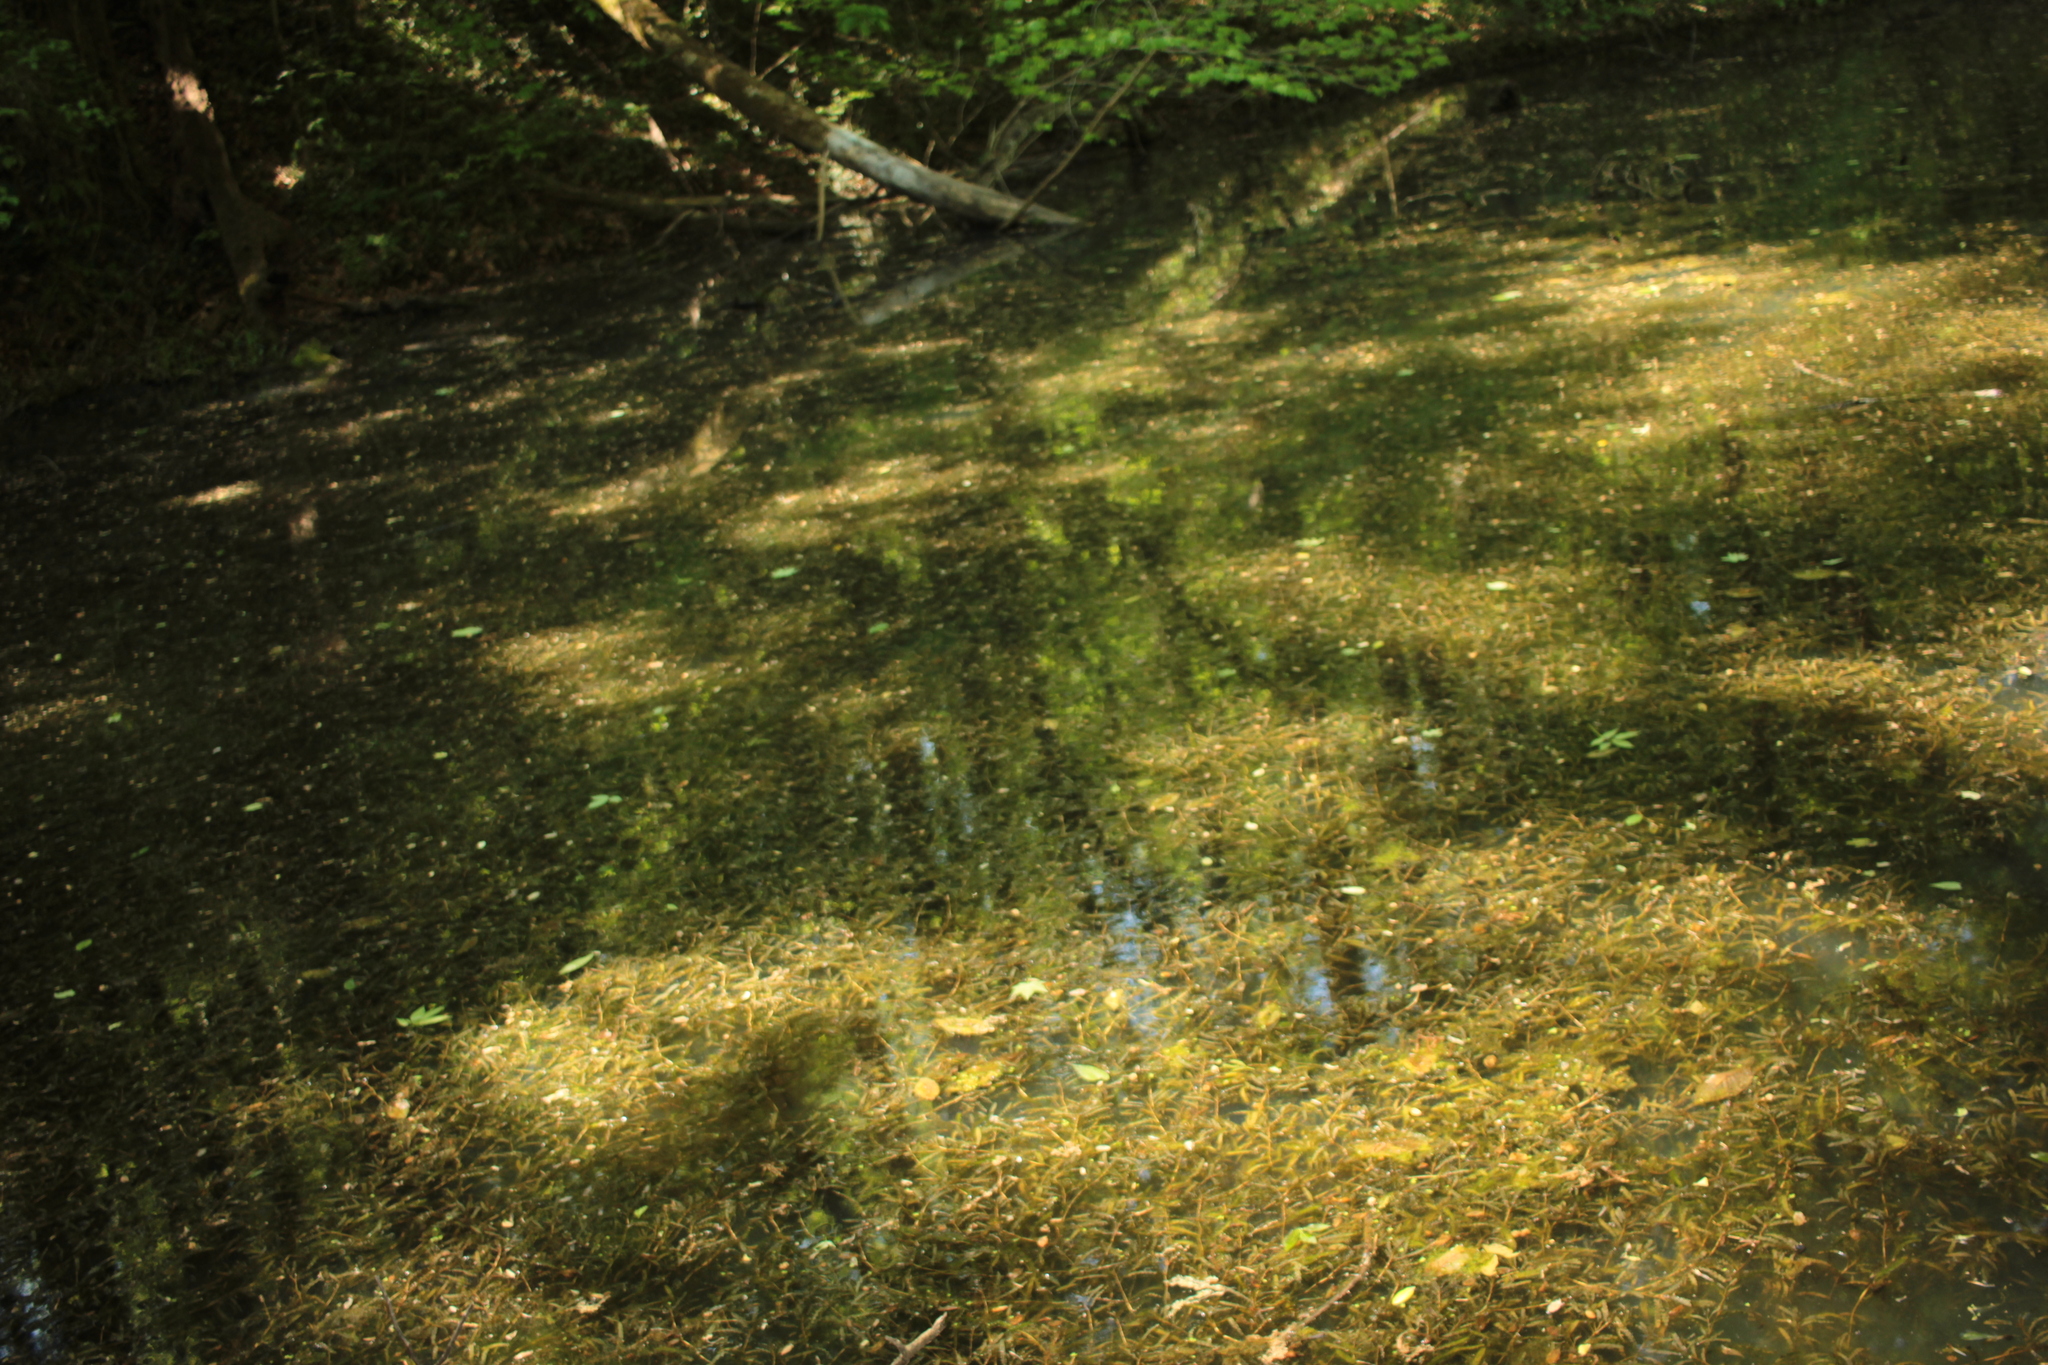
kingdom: Plantae
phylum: Tracheophyta
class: Liliopsida
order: Alismatales
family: Potamogetonaceae
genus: Potamogeton
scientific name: Potamogeton crispus
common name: Curled pondweed
